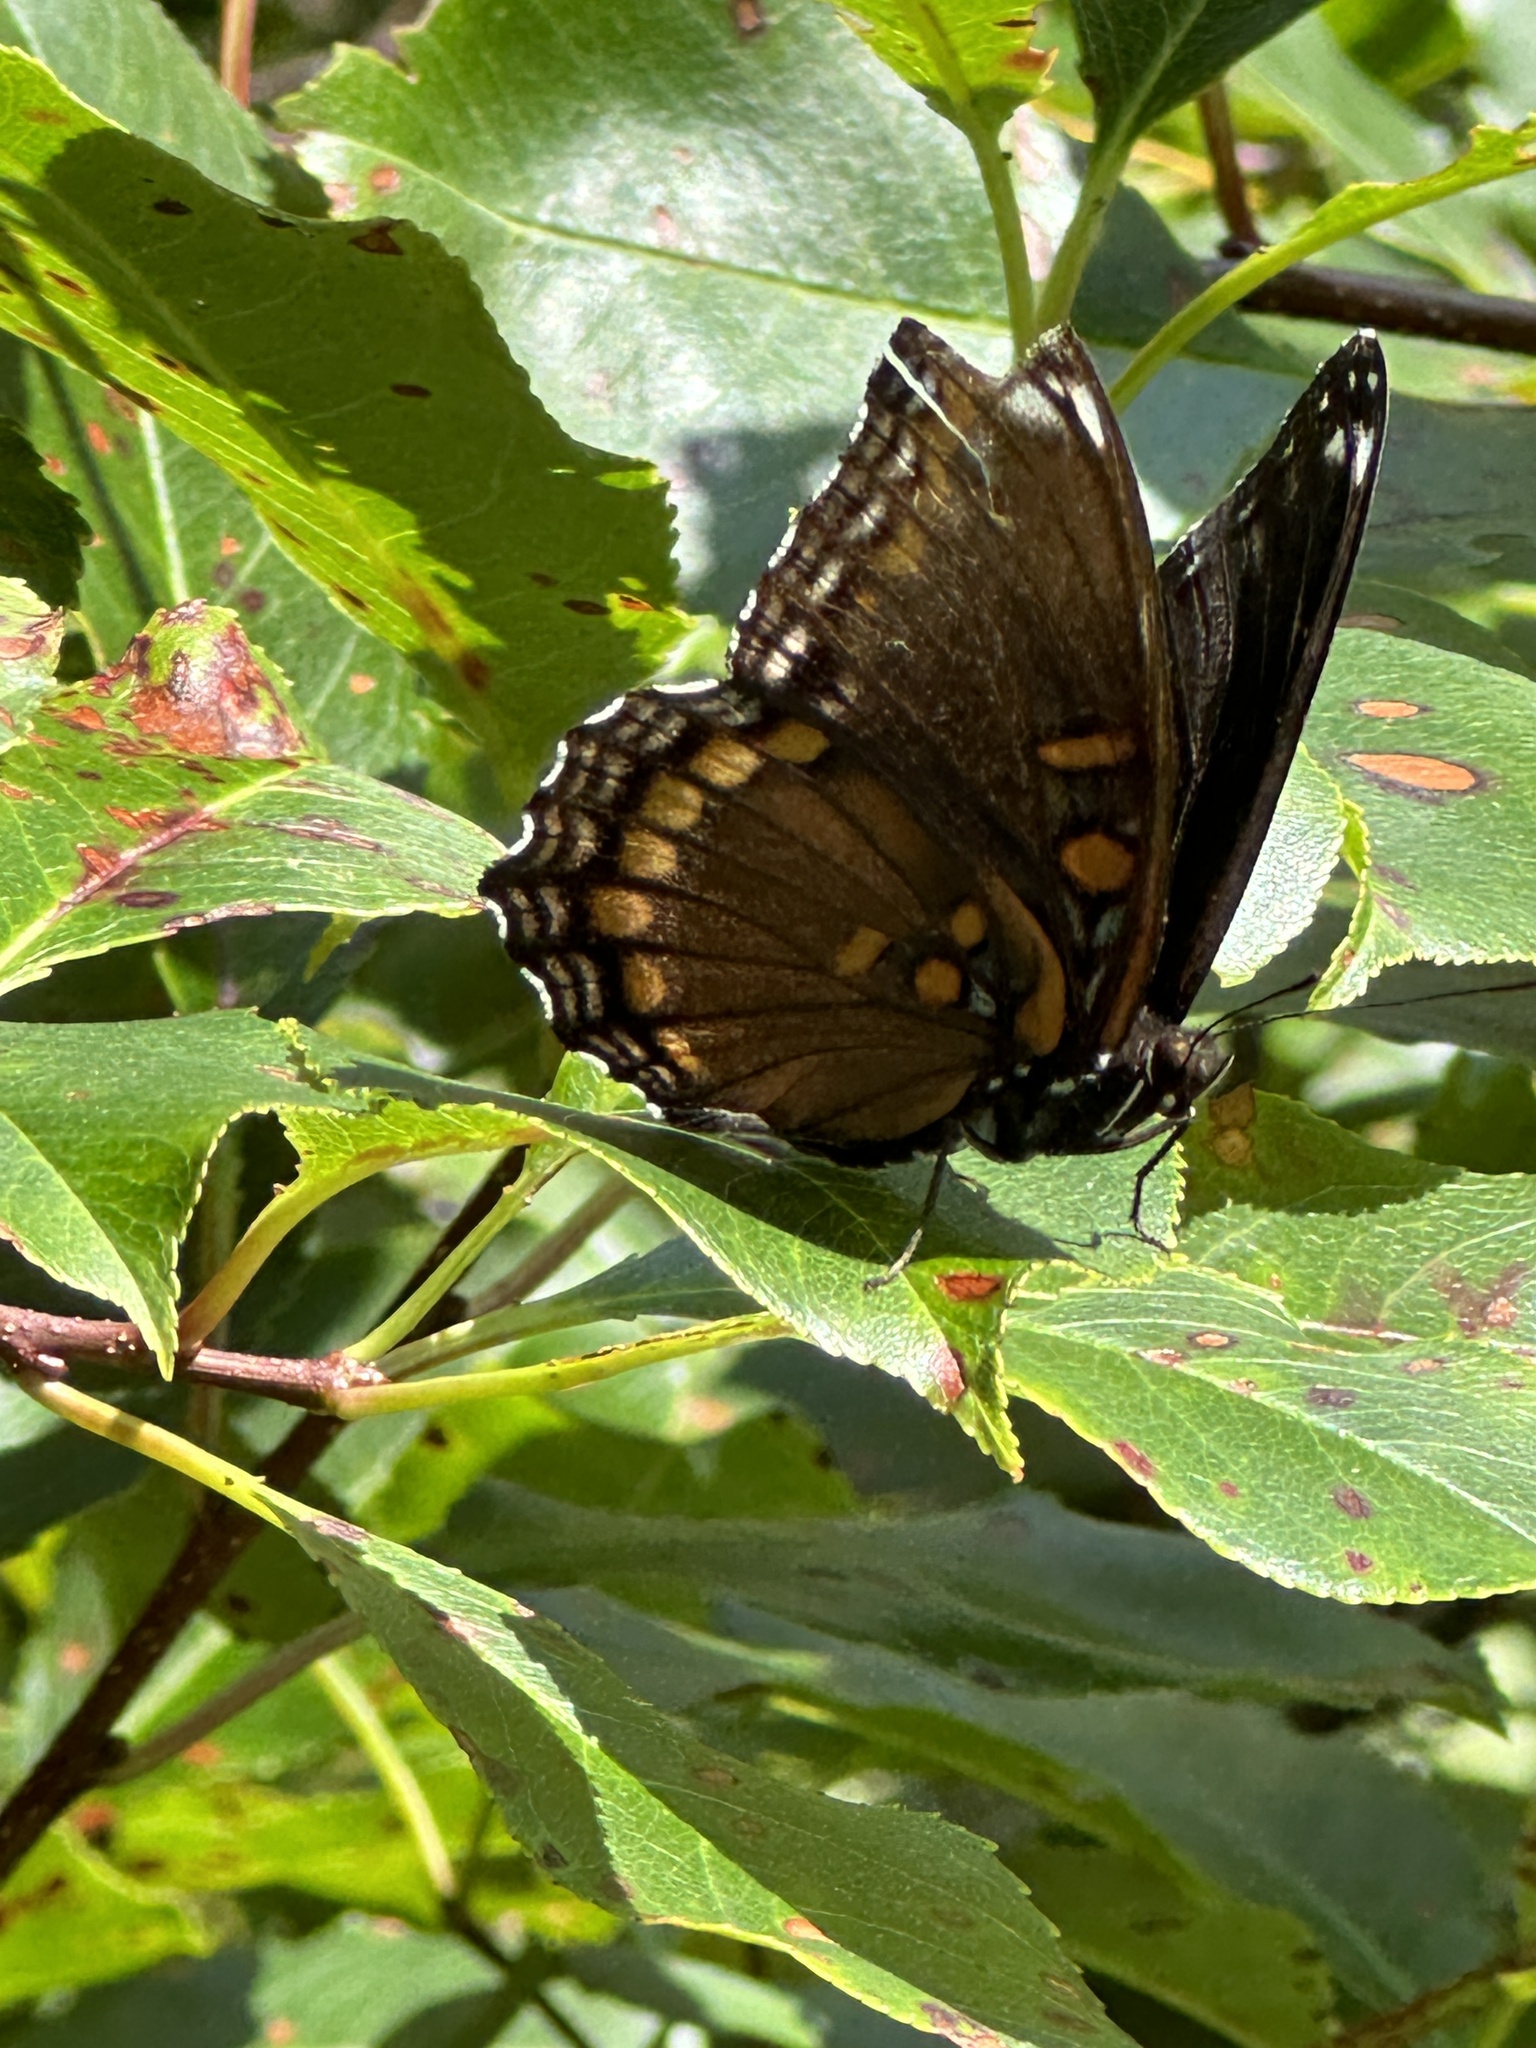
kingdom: Animalia
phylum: Arthropoda
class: Insecta
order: Lepidoptera
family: Nymphalidae
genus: Limenitis
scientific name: Limenitis arthemis
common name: Red-spotted admiral
